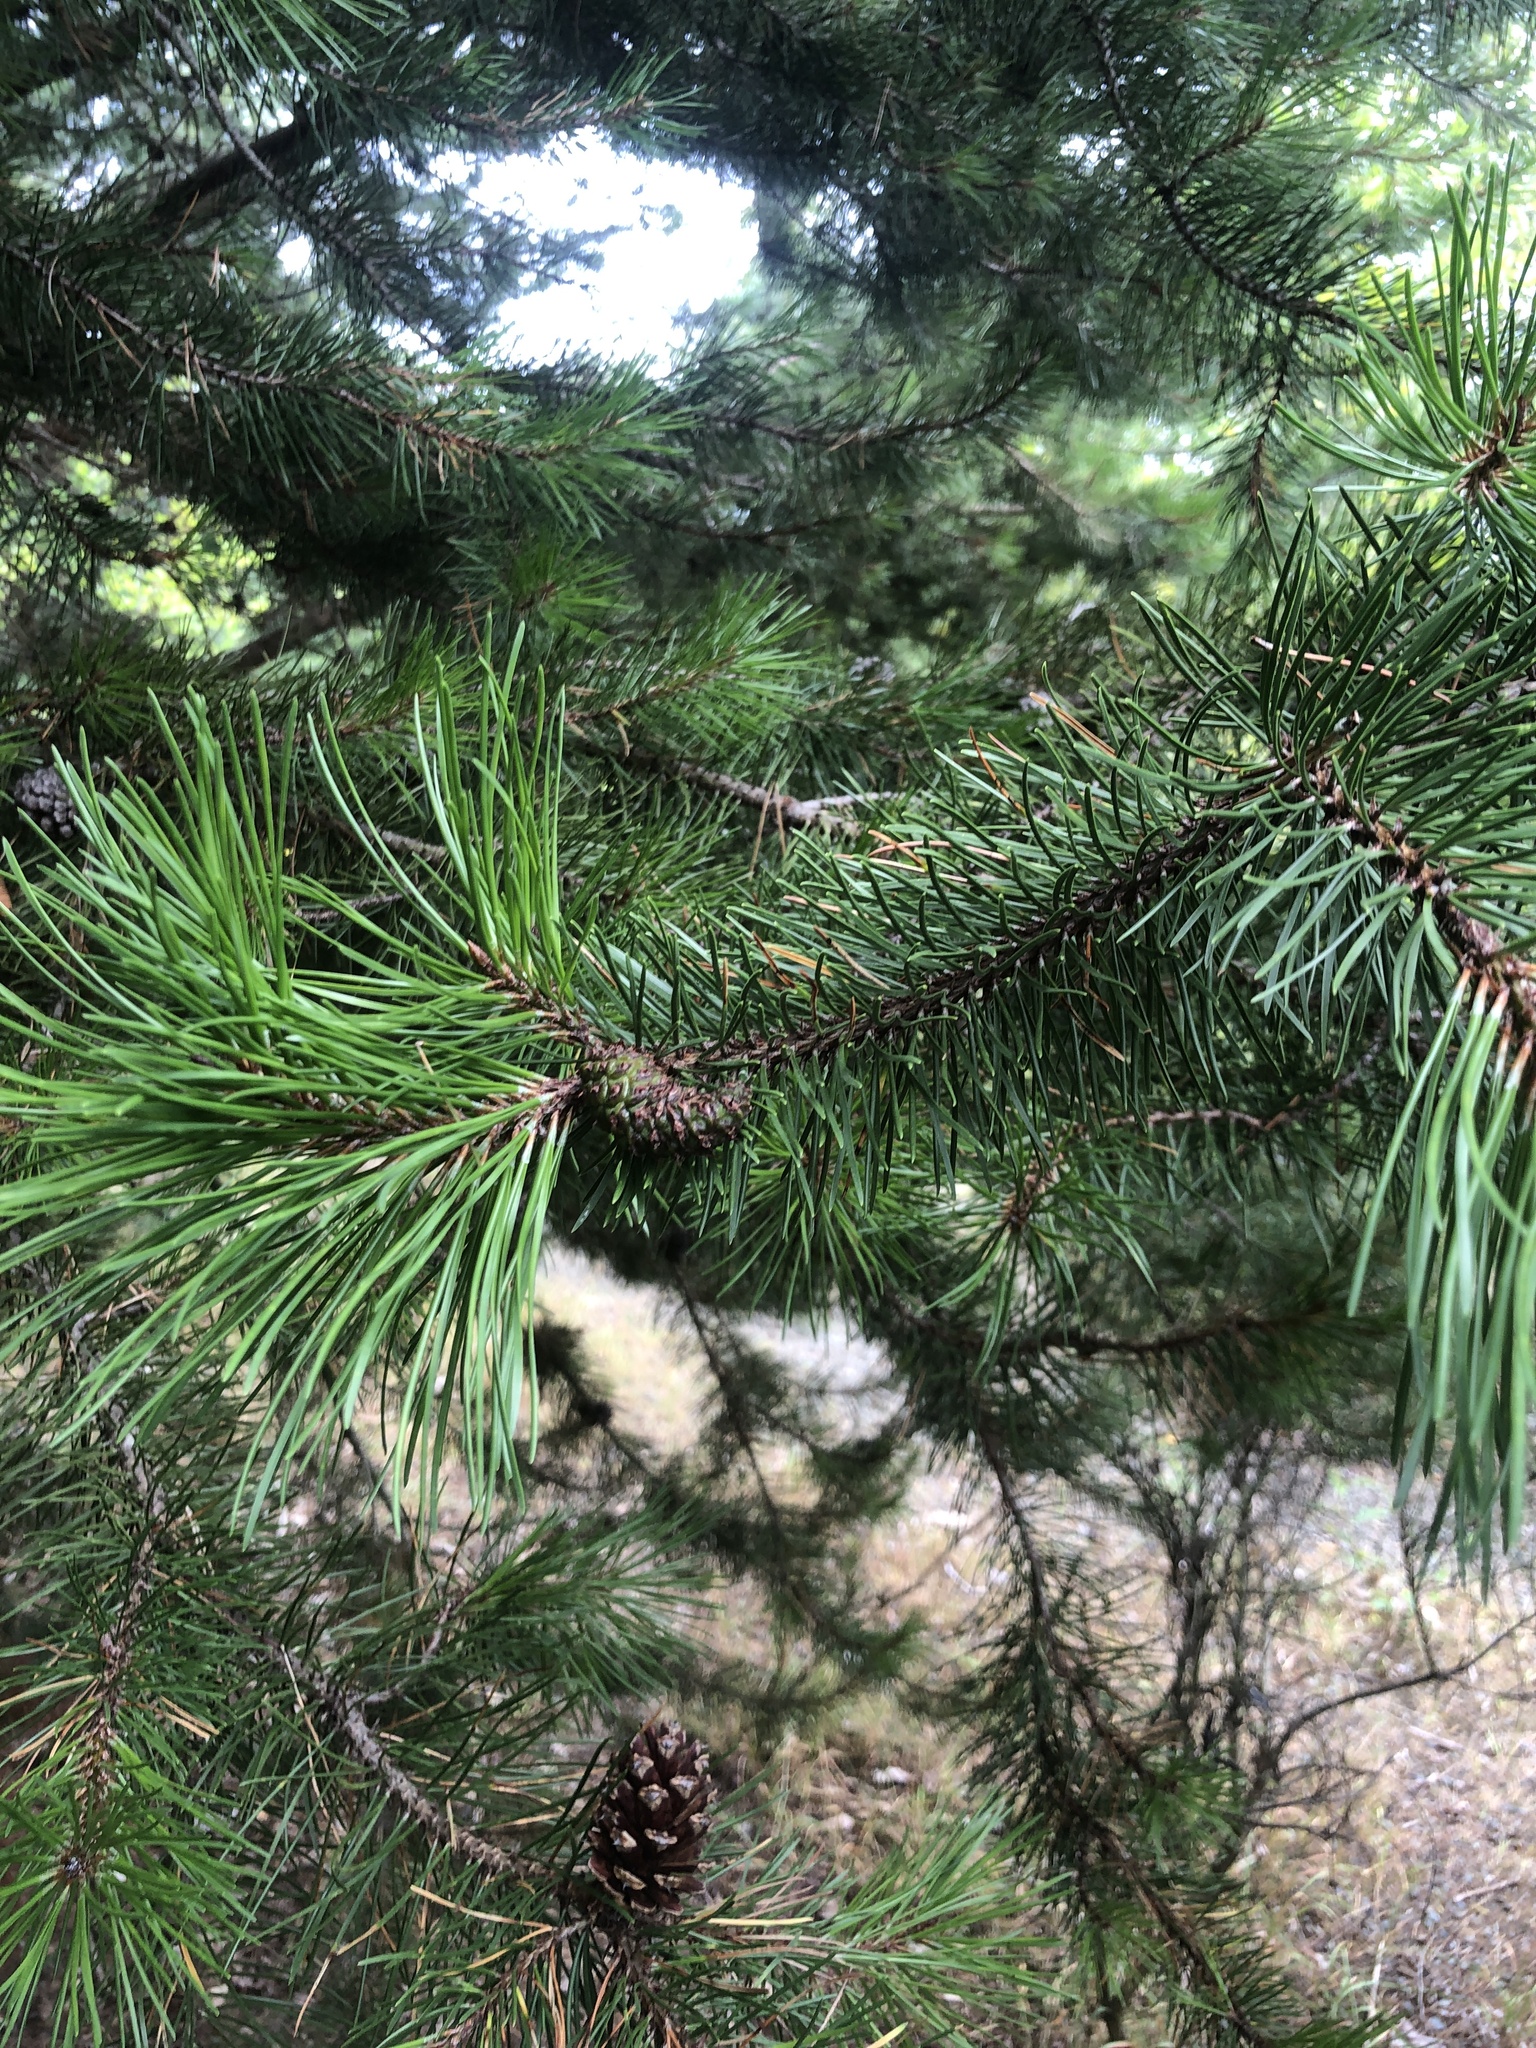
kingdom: Plantae
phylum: Tracheophyta
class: Pinopsida
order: Pinales
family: Pinaceae
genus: Pinus
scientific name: Pinus contorta
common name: Lodgepole pine
